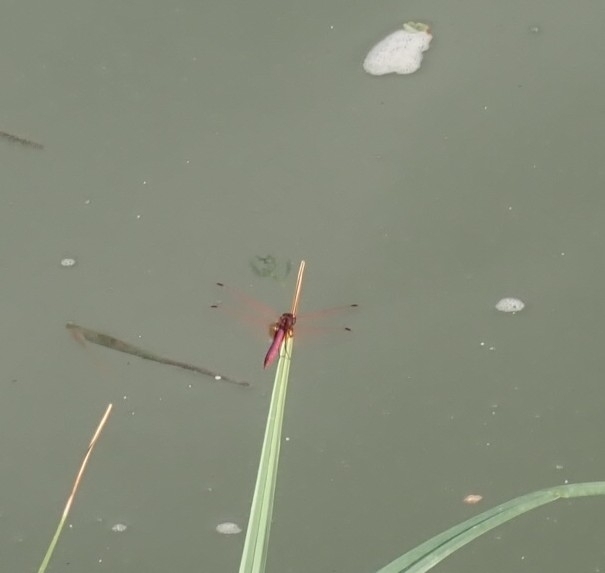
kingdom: Animalia
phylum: Arthropoda
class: Insecta
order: Odonata
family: Libellulidae
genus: Trithemis
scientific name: Trithemis annulata
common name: Violet dropwing
